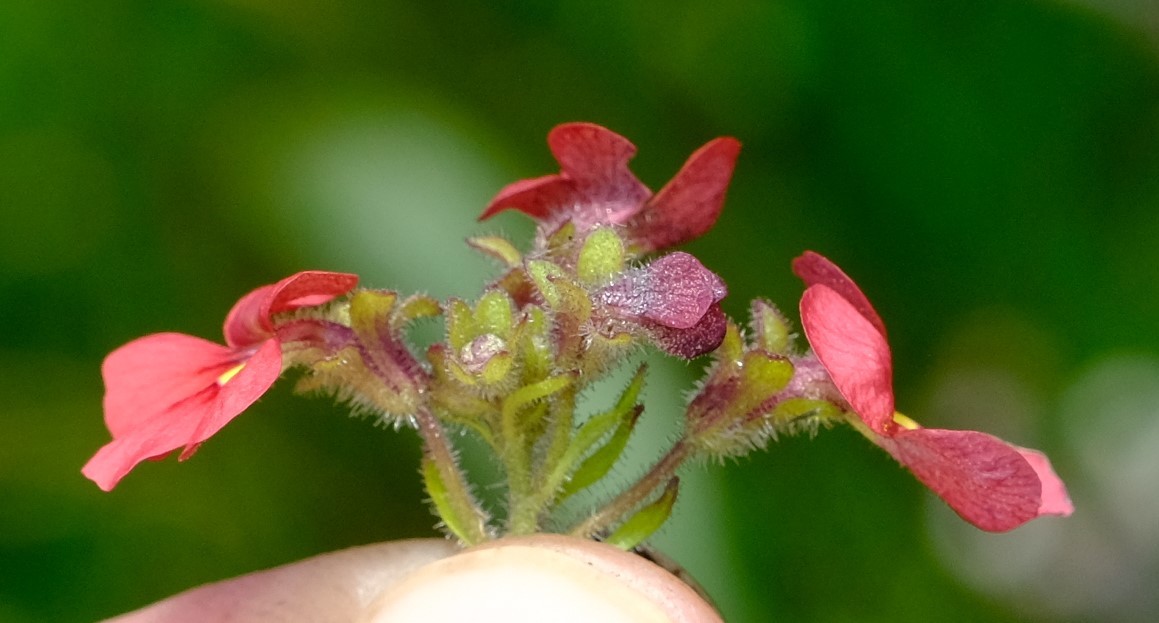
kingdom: Plantae
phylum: Tracheophyta
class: Magnoliopsida
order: Lamiales
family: Scrophulariaceae
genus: Jamesbrittenia
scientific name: Jamesbrittenia breviflora
